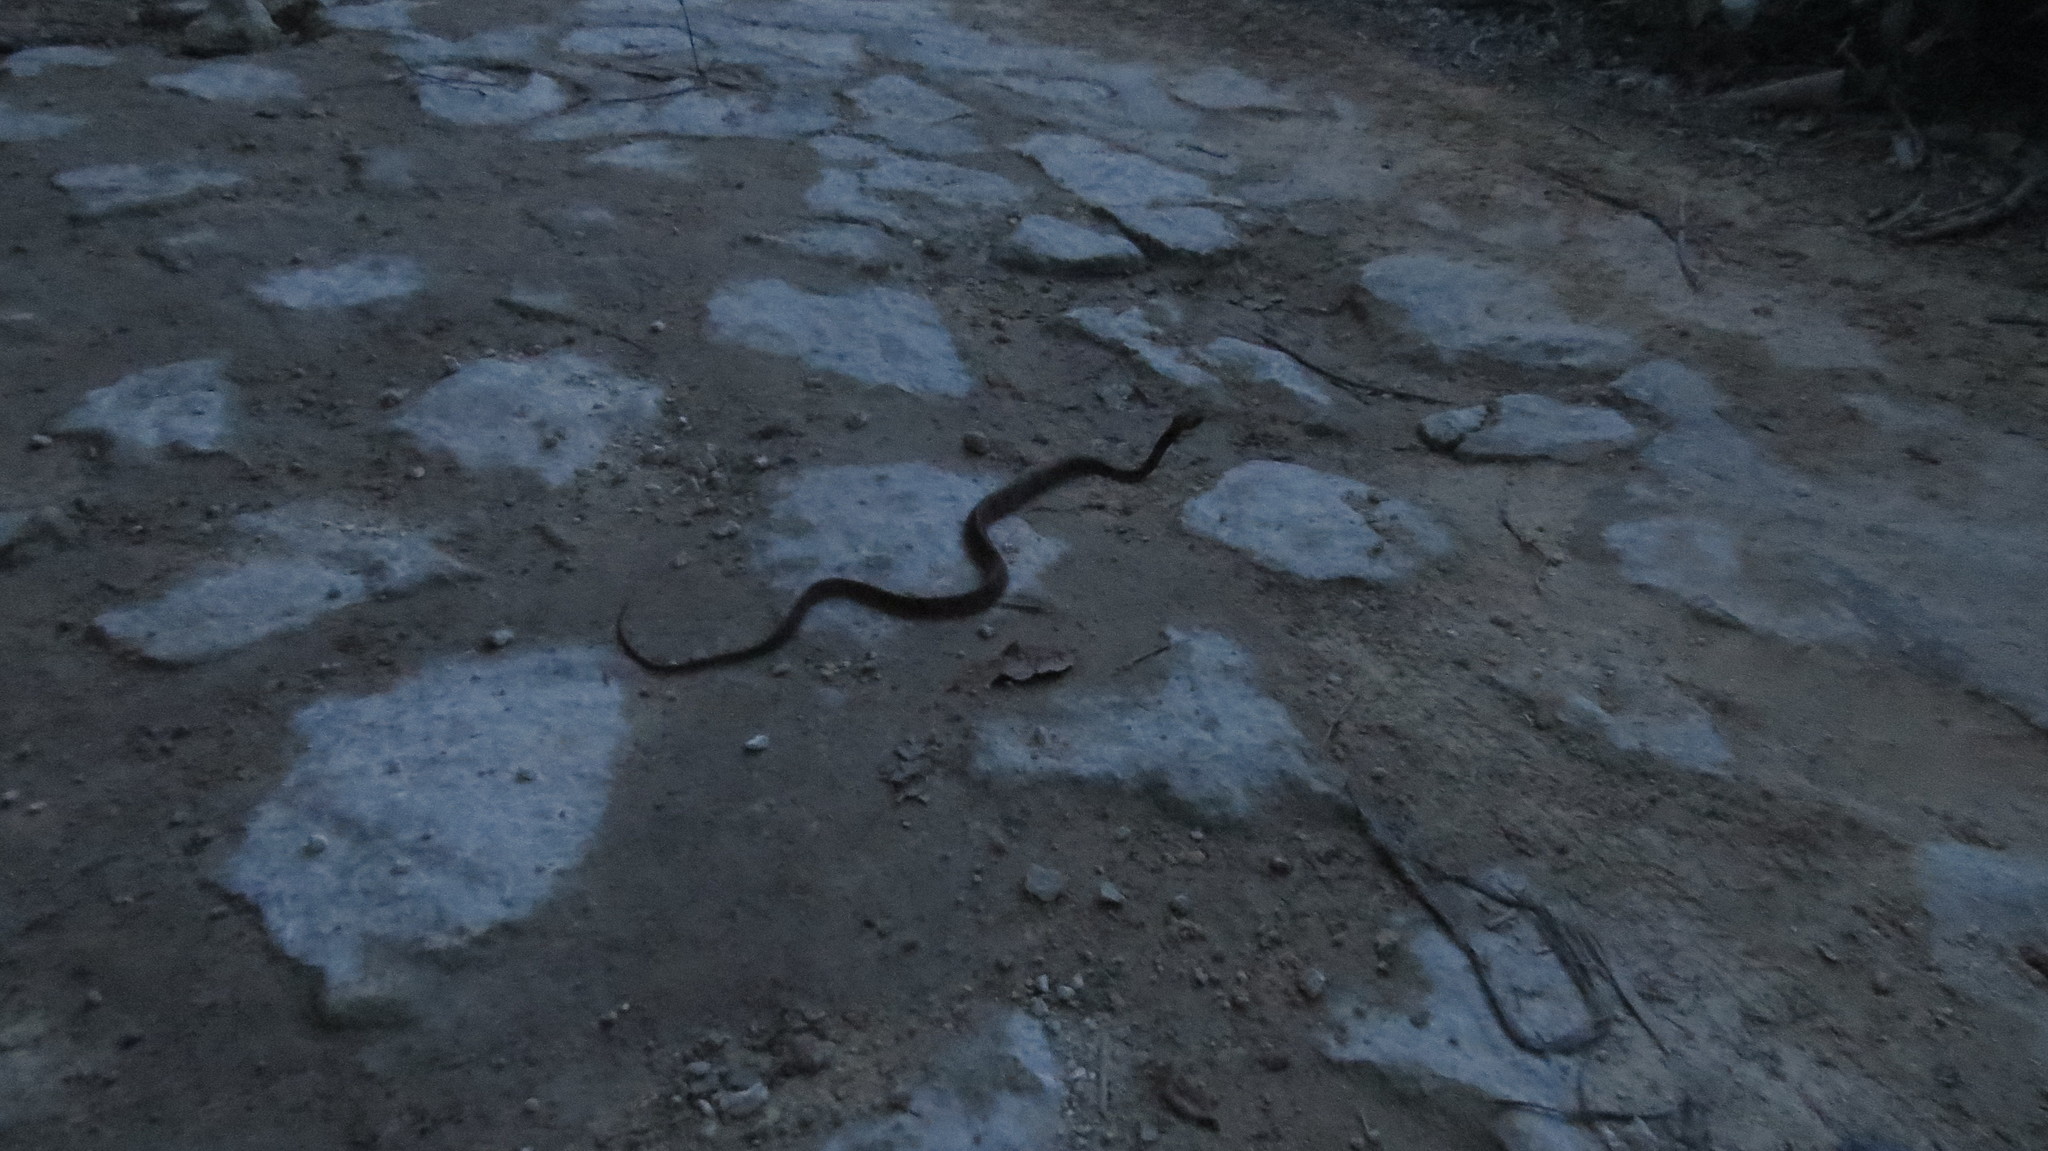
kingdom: Animalia
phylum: Chordata
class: Squamata
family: Colubridae
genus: Leptodeira
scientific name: Leptodeira frenata
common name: Rainforest cat-eyed snake
